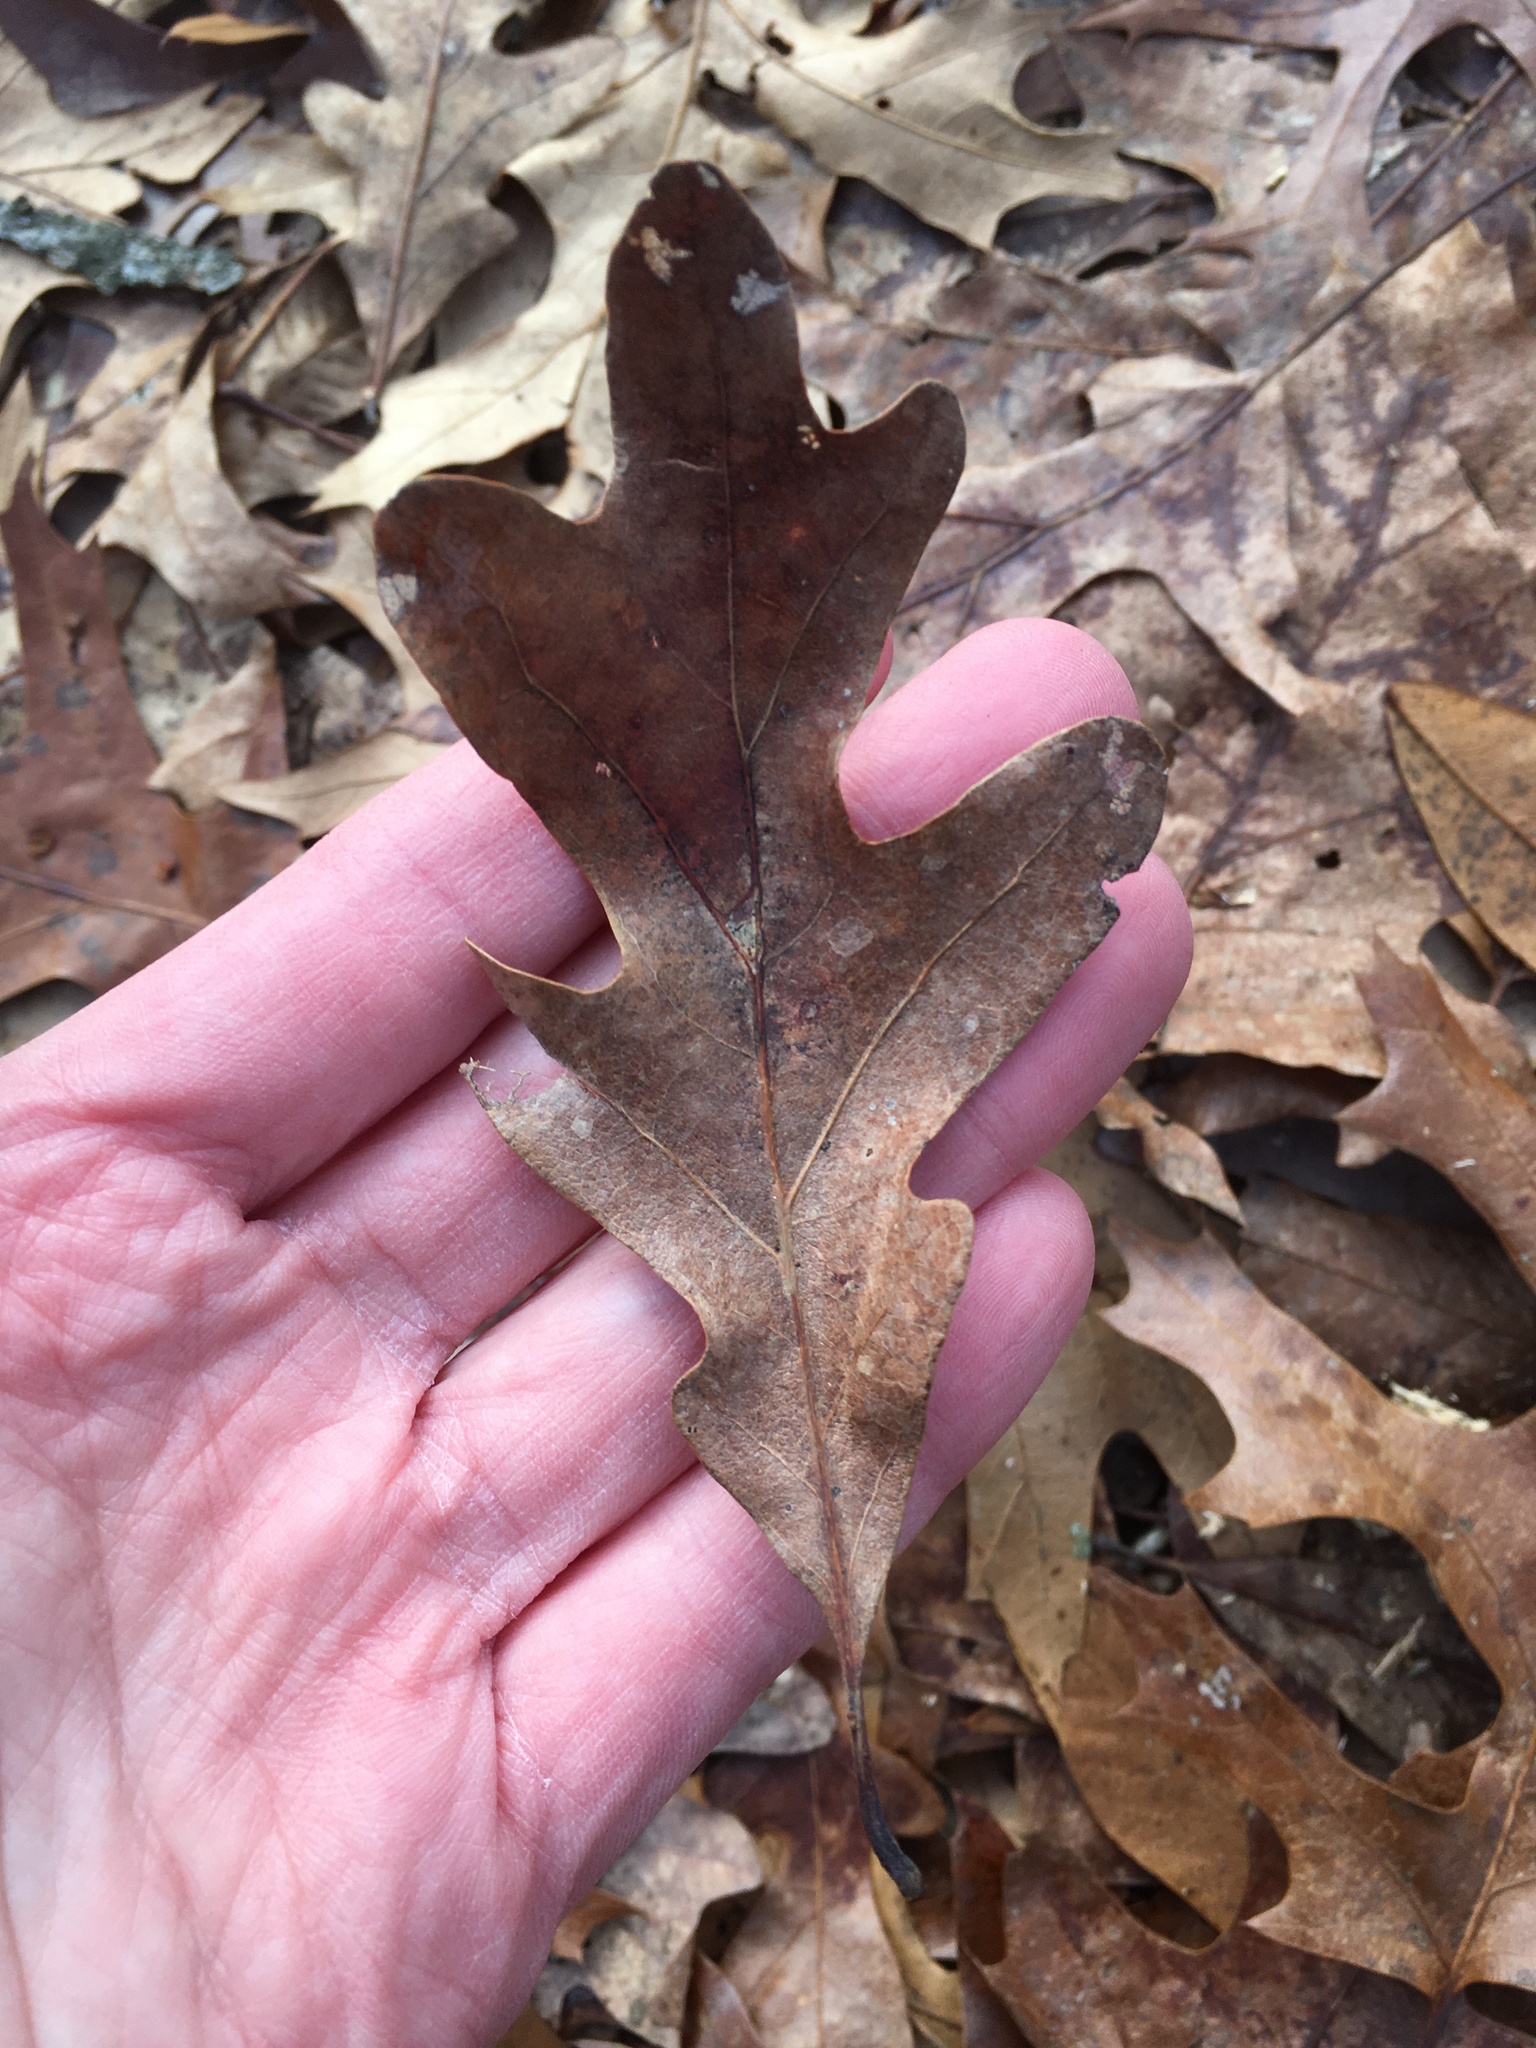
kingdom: Plantae
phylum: Tracheophyta
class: Magnoliopsida
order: Fagales
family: Fagaceae
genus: Quercus
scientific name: Quercus alba
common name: White oak
